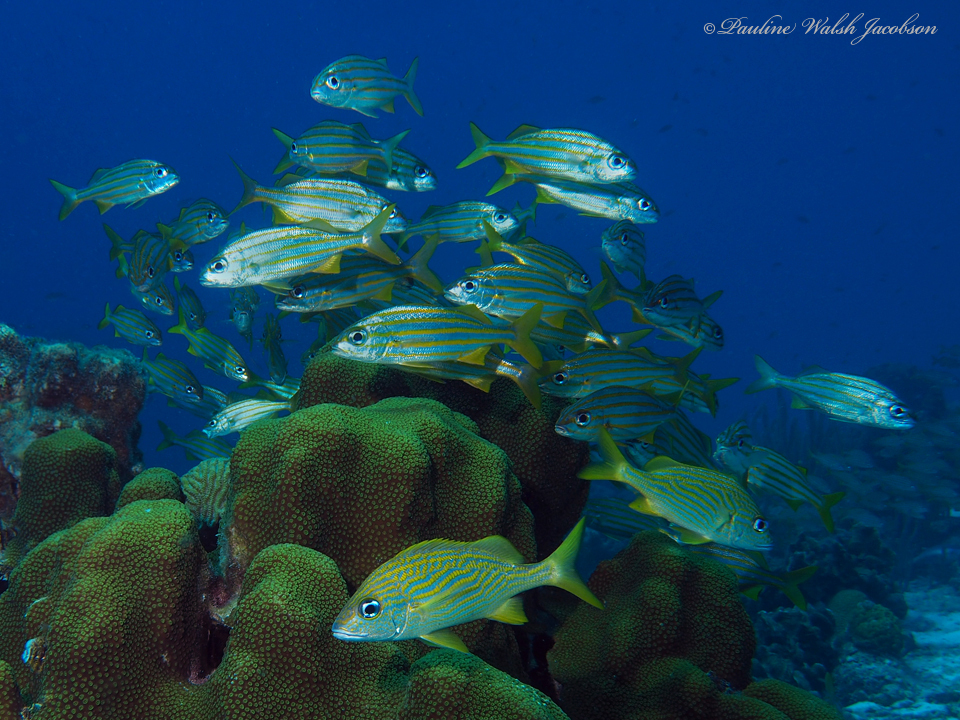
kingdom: Animalia
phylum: Chordata
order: Perciformes
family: Haemulidae
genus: Haemulon
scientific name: Haemulon flavolineatum
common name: French grunt
